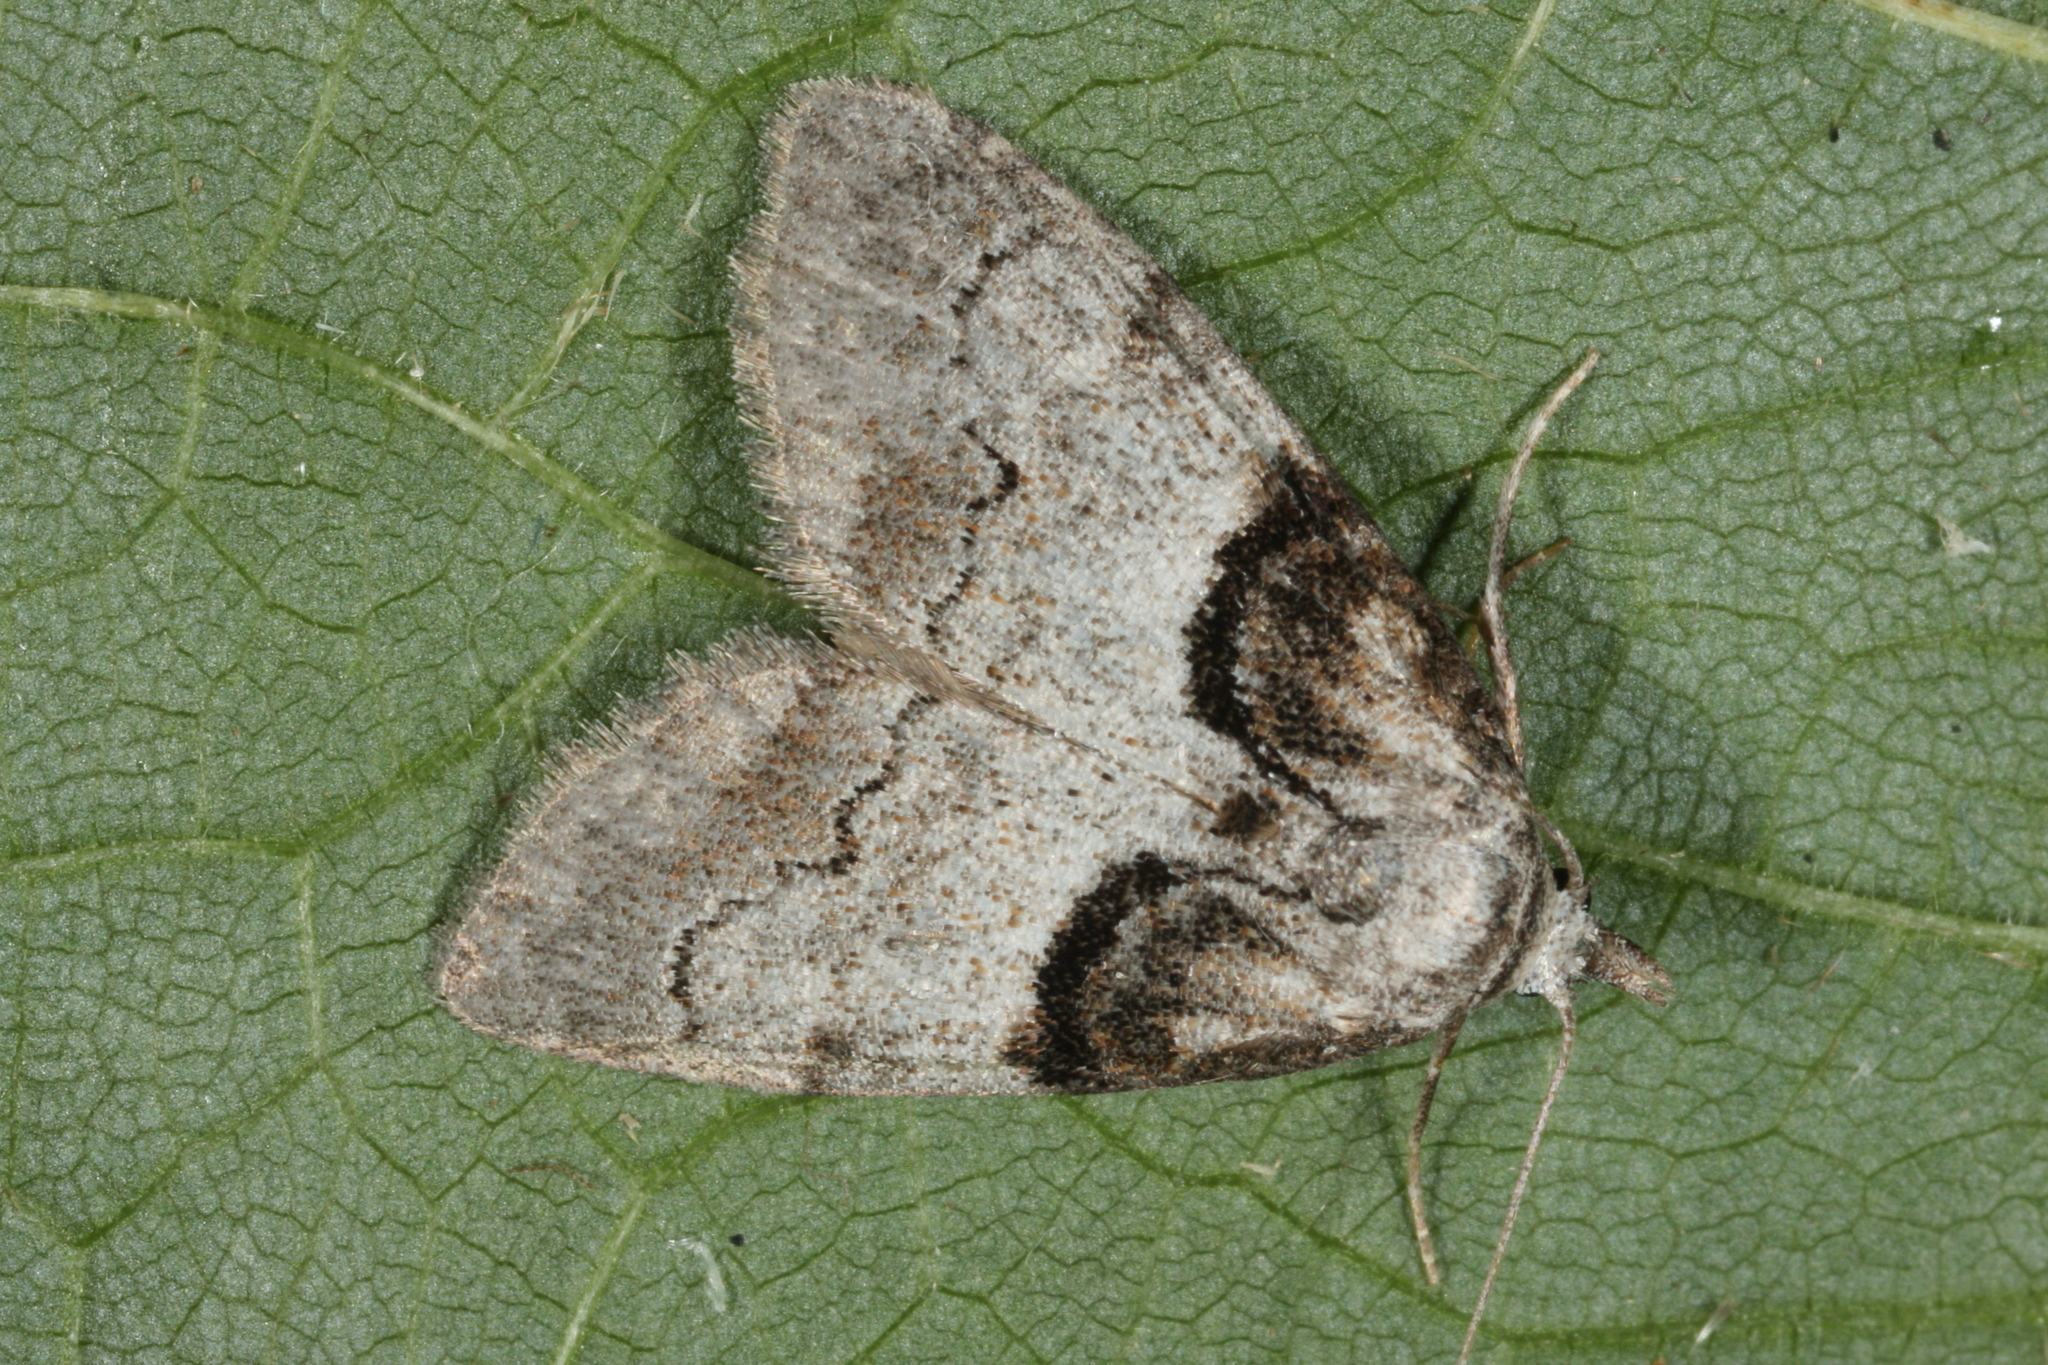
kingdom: Animalia
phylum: Arthropoda
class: Insecta
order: Lepidoptera
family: Nolidae
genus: Nola
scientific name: Nola cucullatella
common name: Short-cloaked moth
